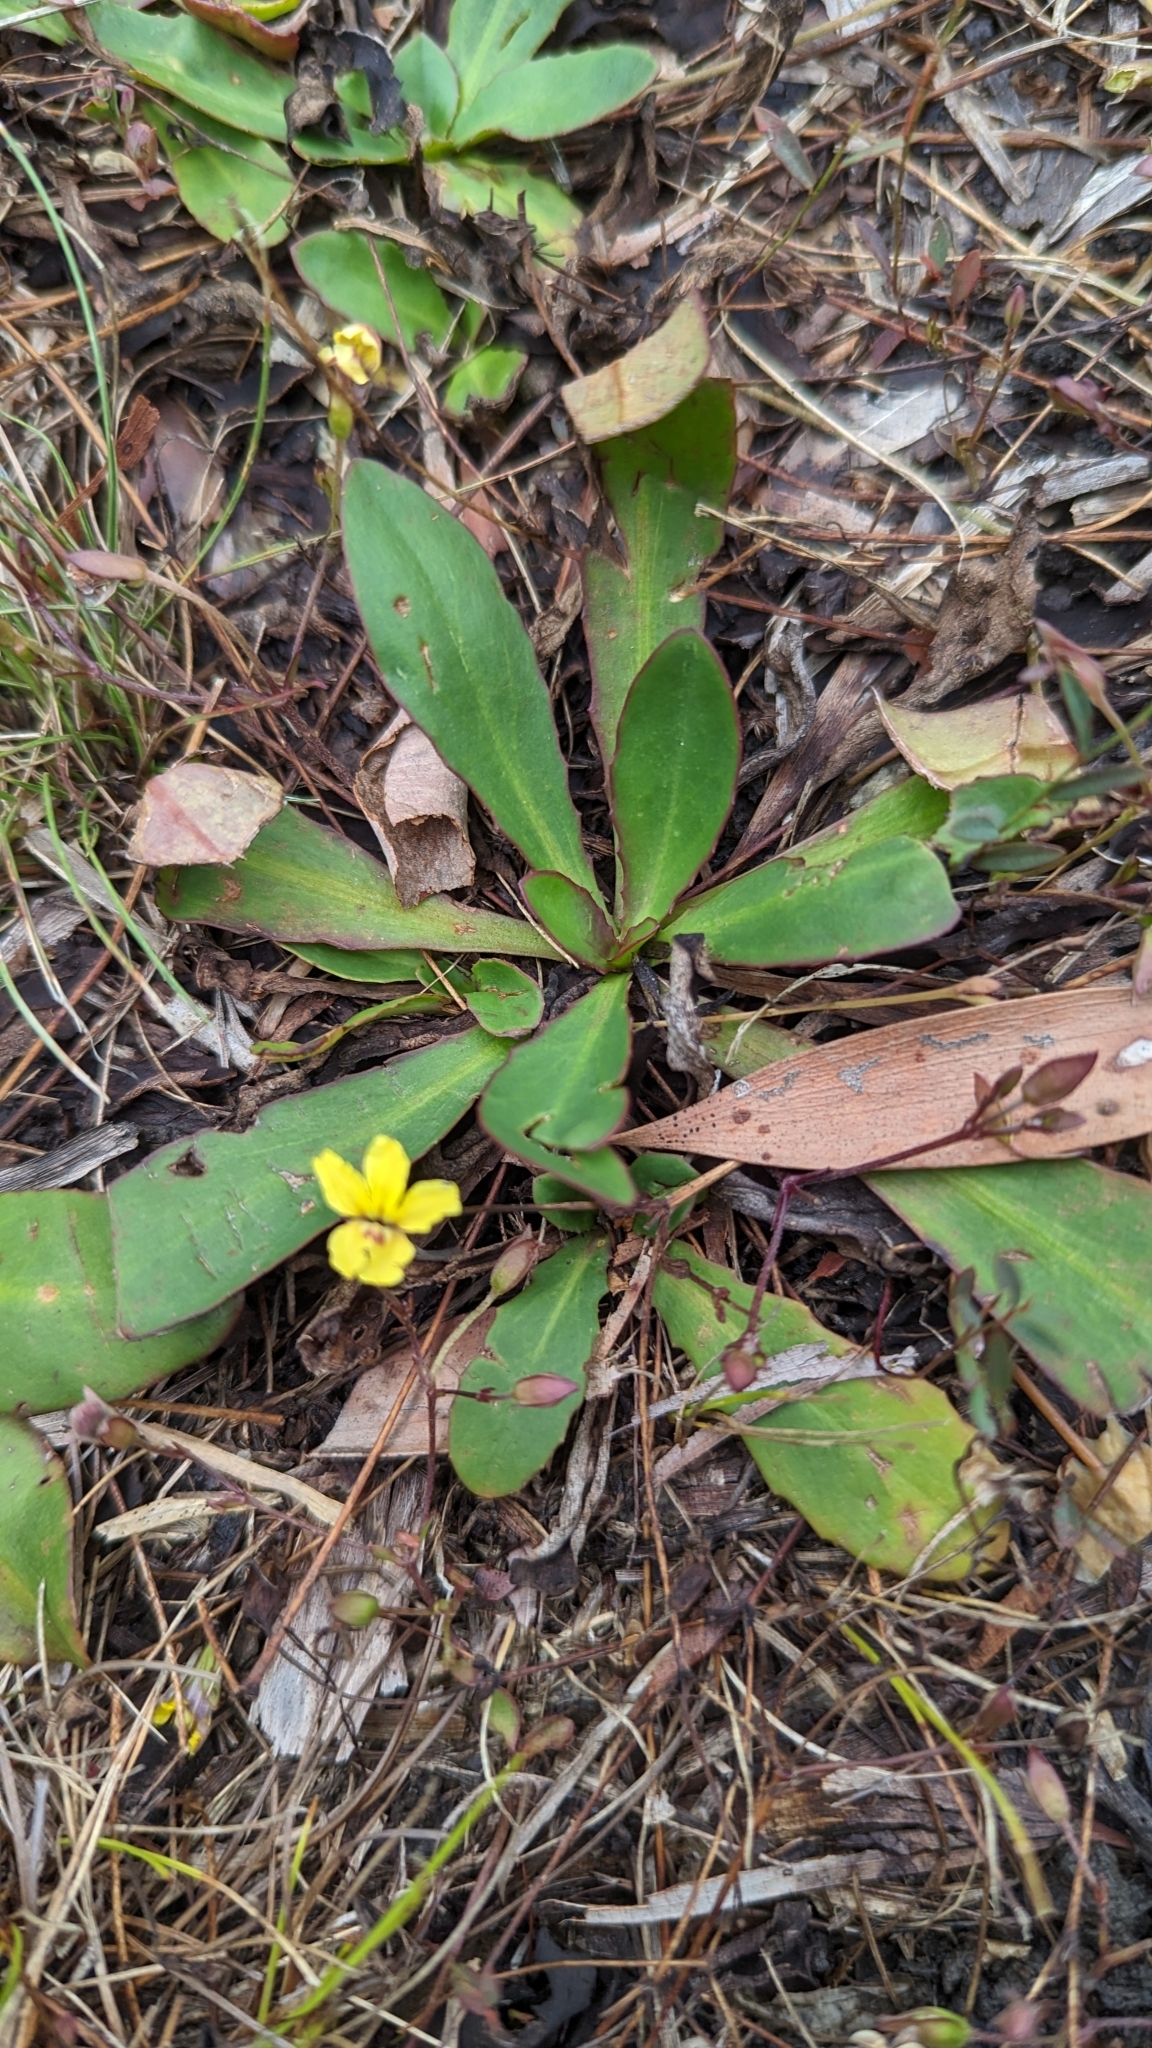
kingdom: Plantae
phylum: Tracheophyta
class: Magnoliopsida
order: Asterales
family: Goodeniaceae
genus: Goodenia
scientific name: Goodenia mystrophylla
